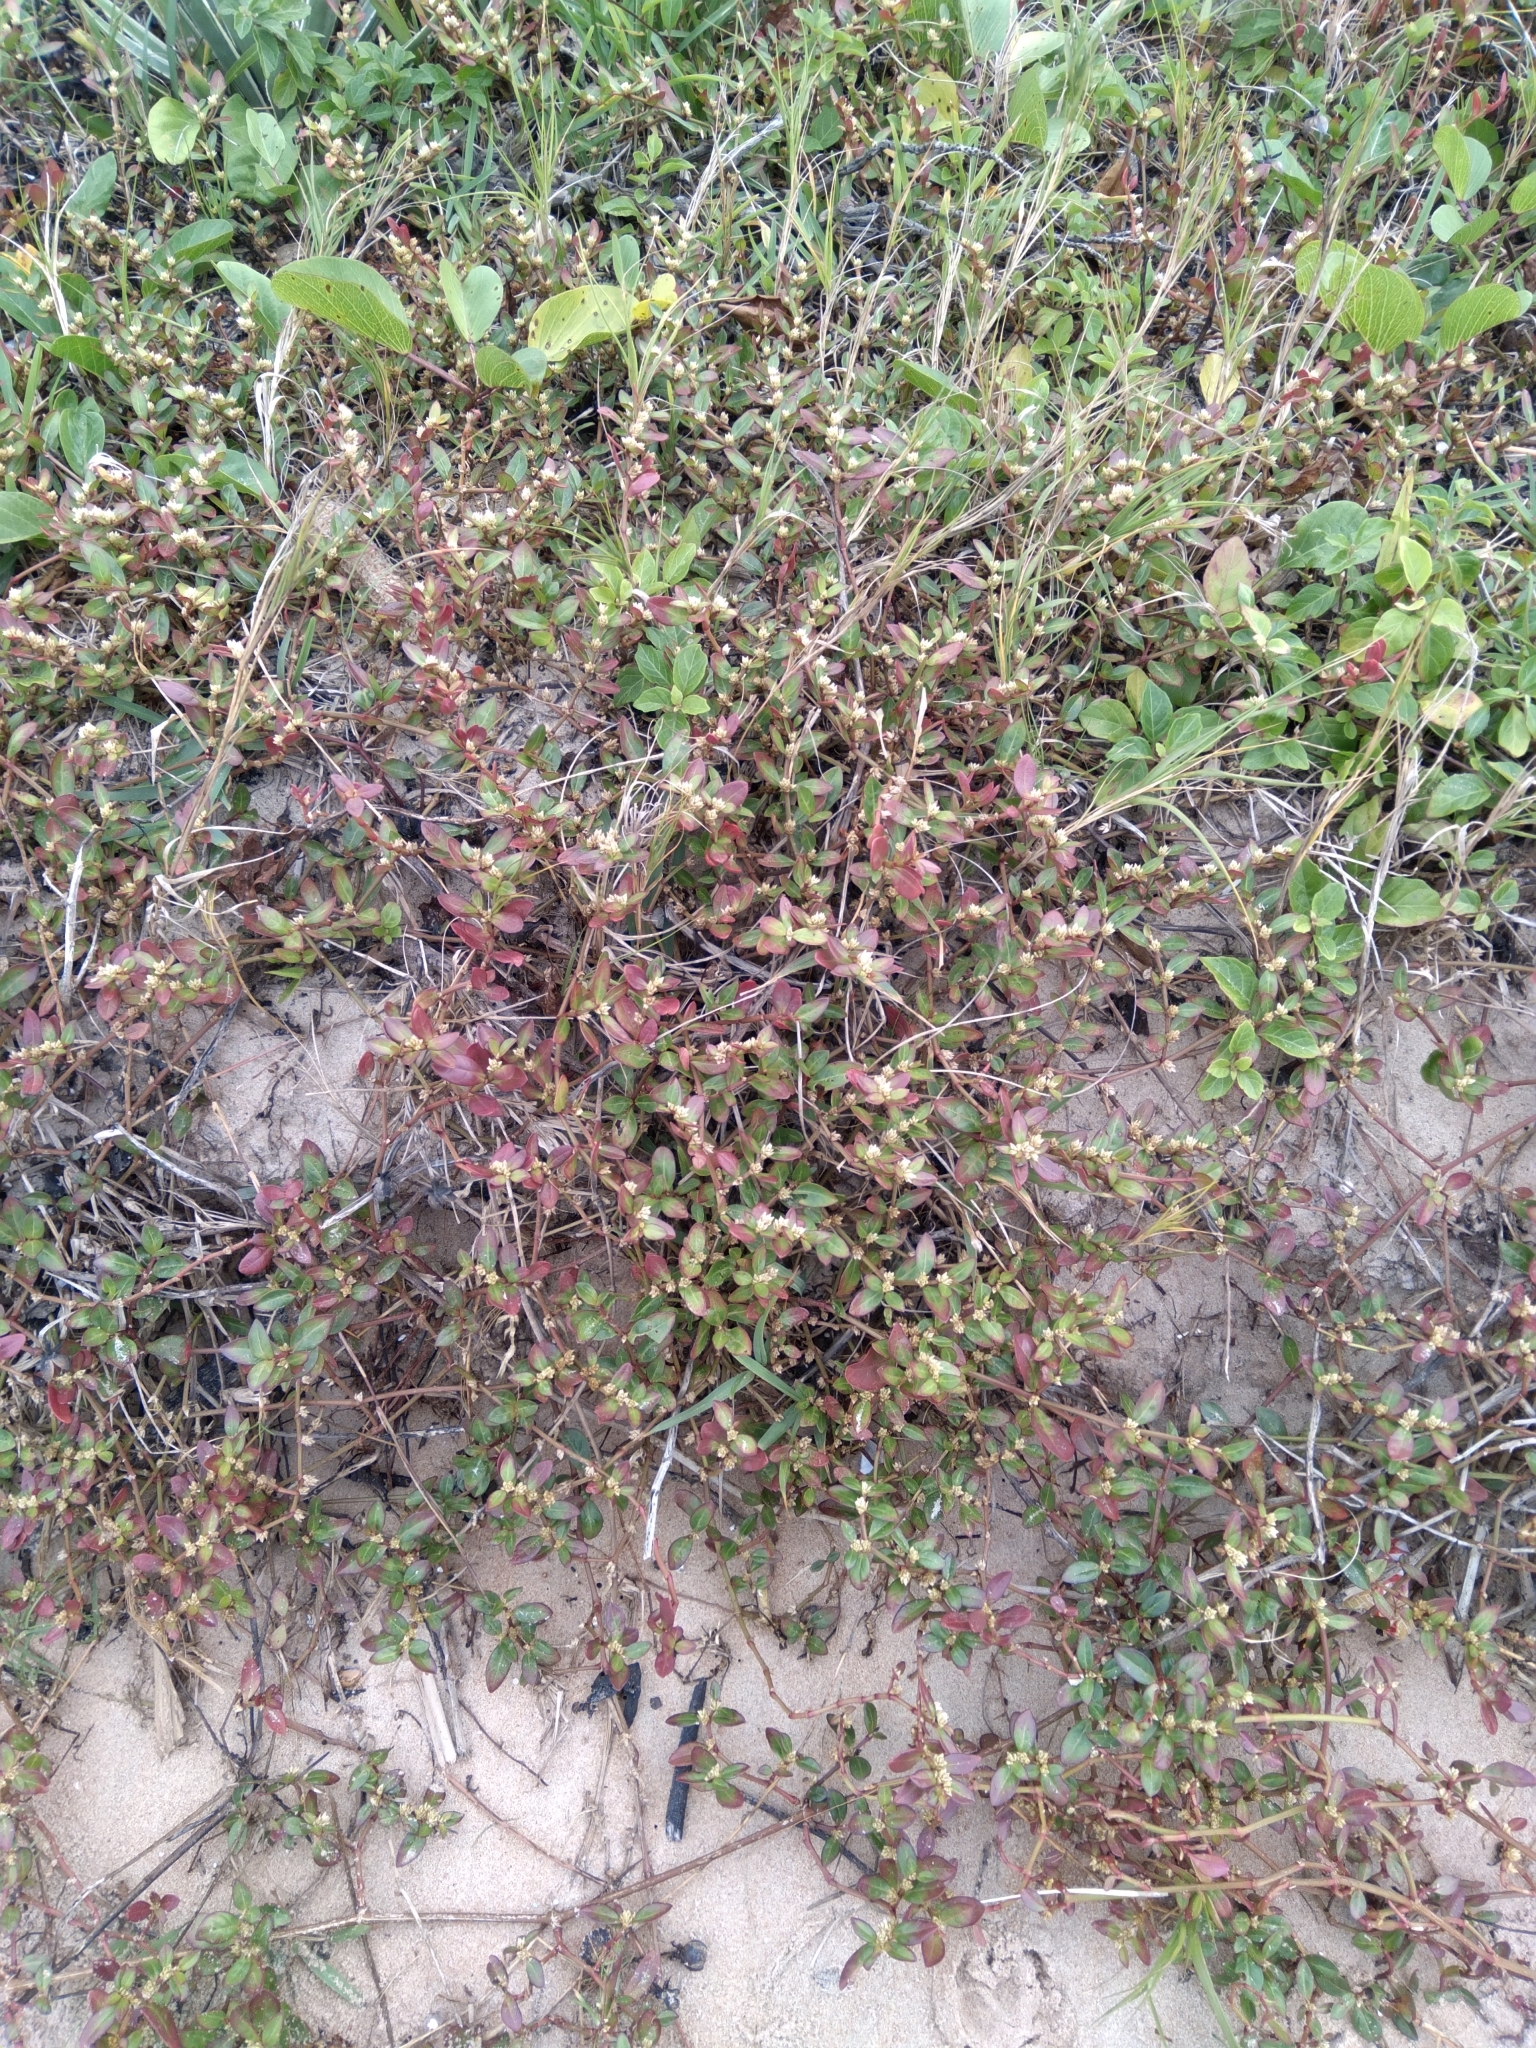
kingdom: Plantae
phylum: Tracheophyta
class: Magnoliopsida
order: Caryophyllales
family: Amaranthaceae
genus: Alternanthera
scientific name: Alternanthera littoralis
